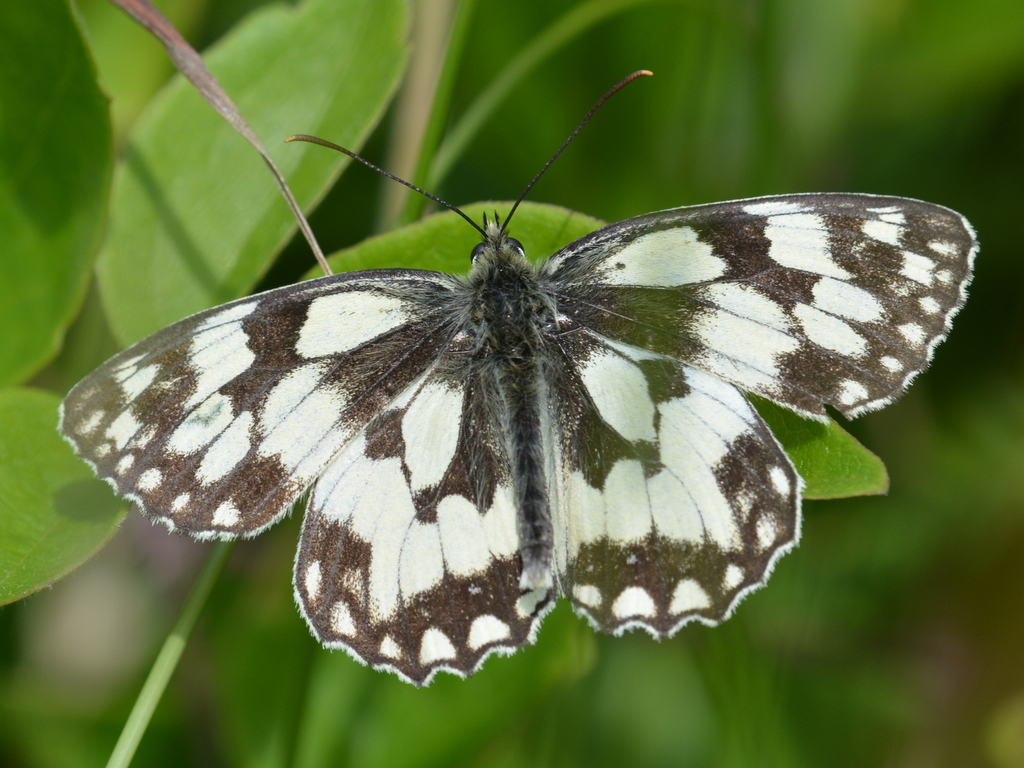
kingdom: Animalia
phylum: Arthropoda
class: Insecta
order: Lepidoptera
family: Nymphalidae
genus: Melanargia
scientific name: Melanargia galathea
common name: Marbled white
